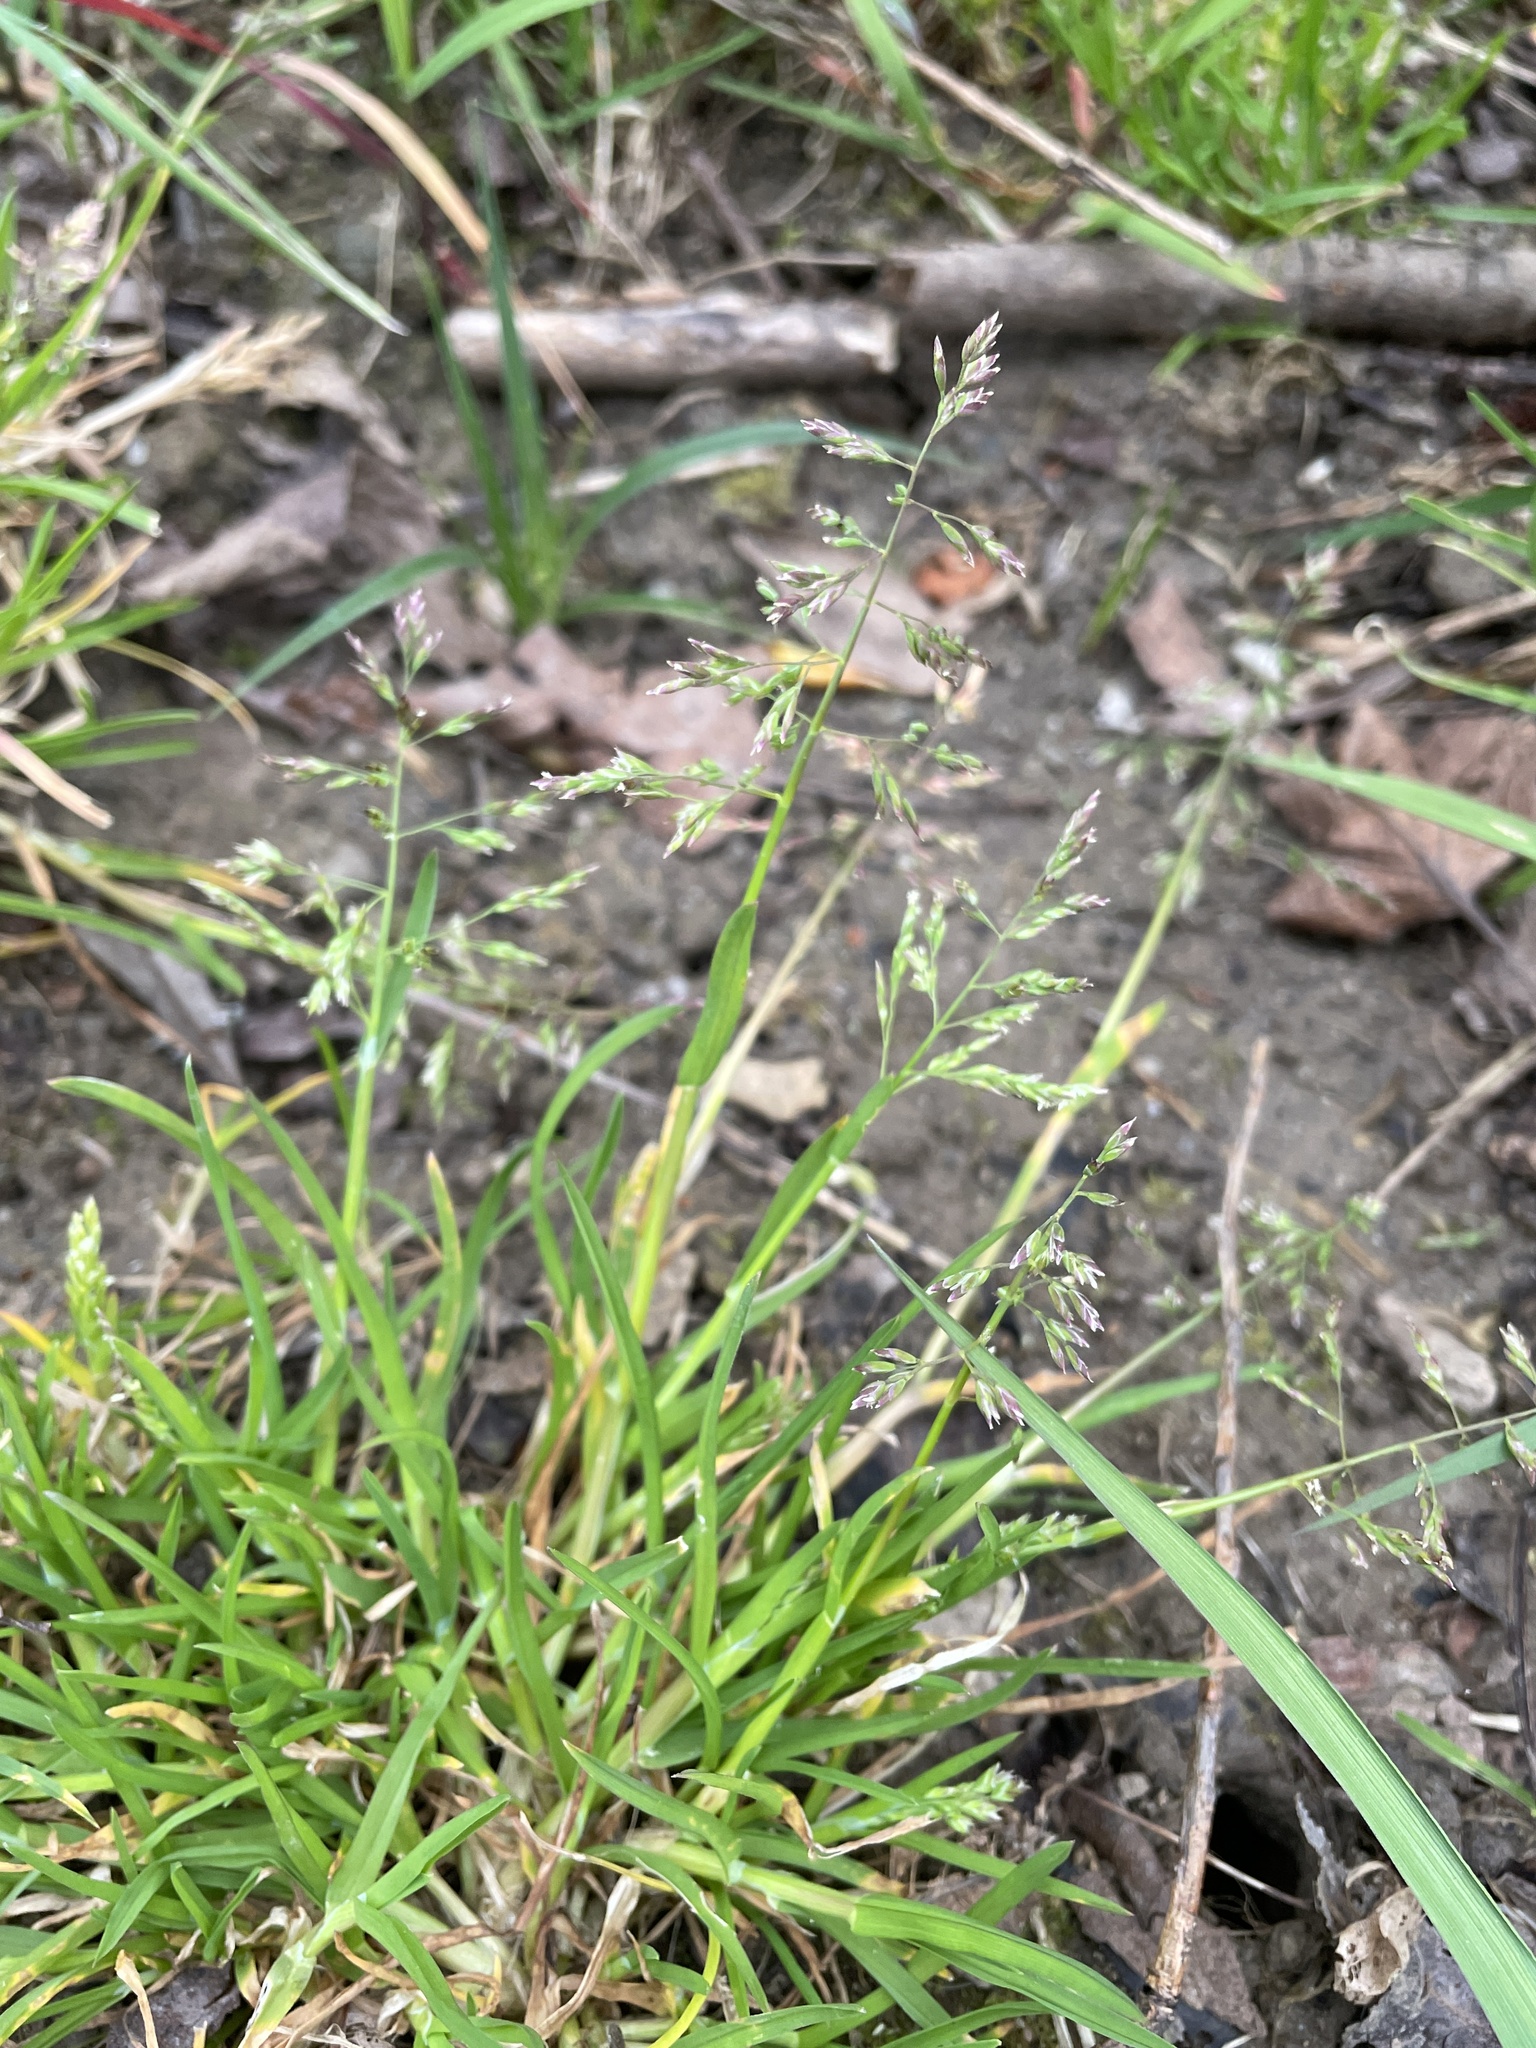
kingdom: Plantae
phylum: Tracheophyta
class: Liliopsida
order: Poales
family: Poaceae
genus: Poa
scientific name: Poa annua
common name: Annual bluegrass
